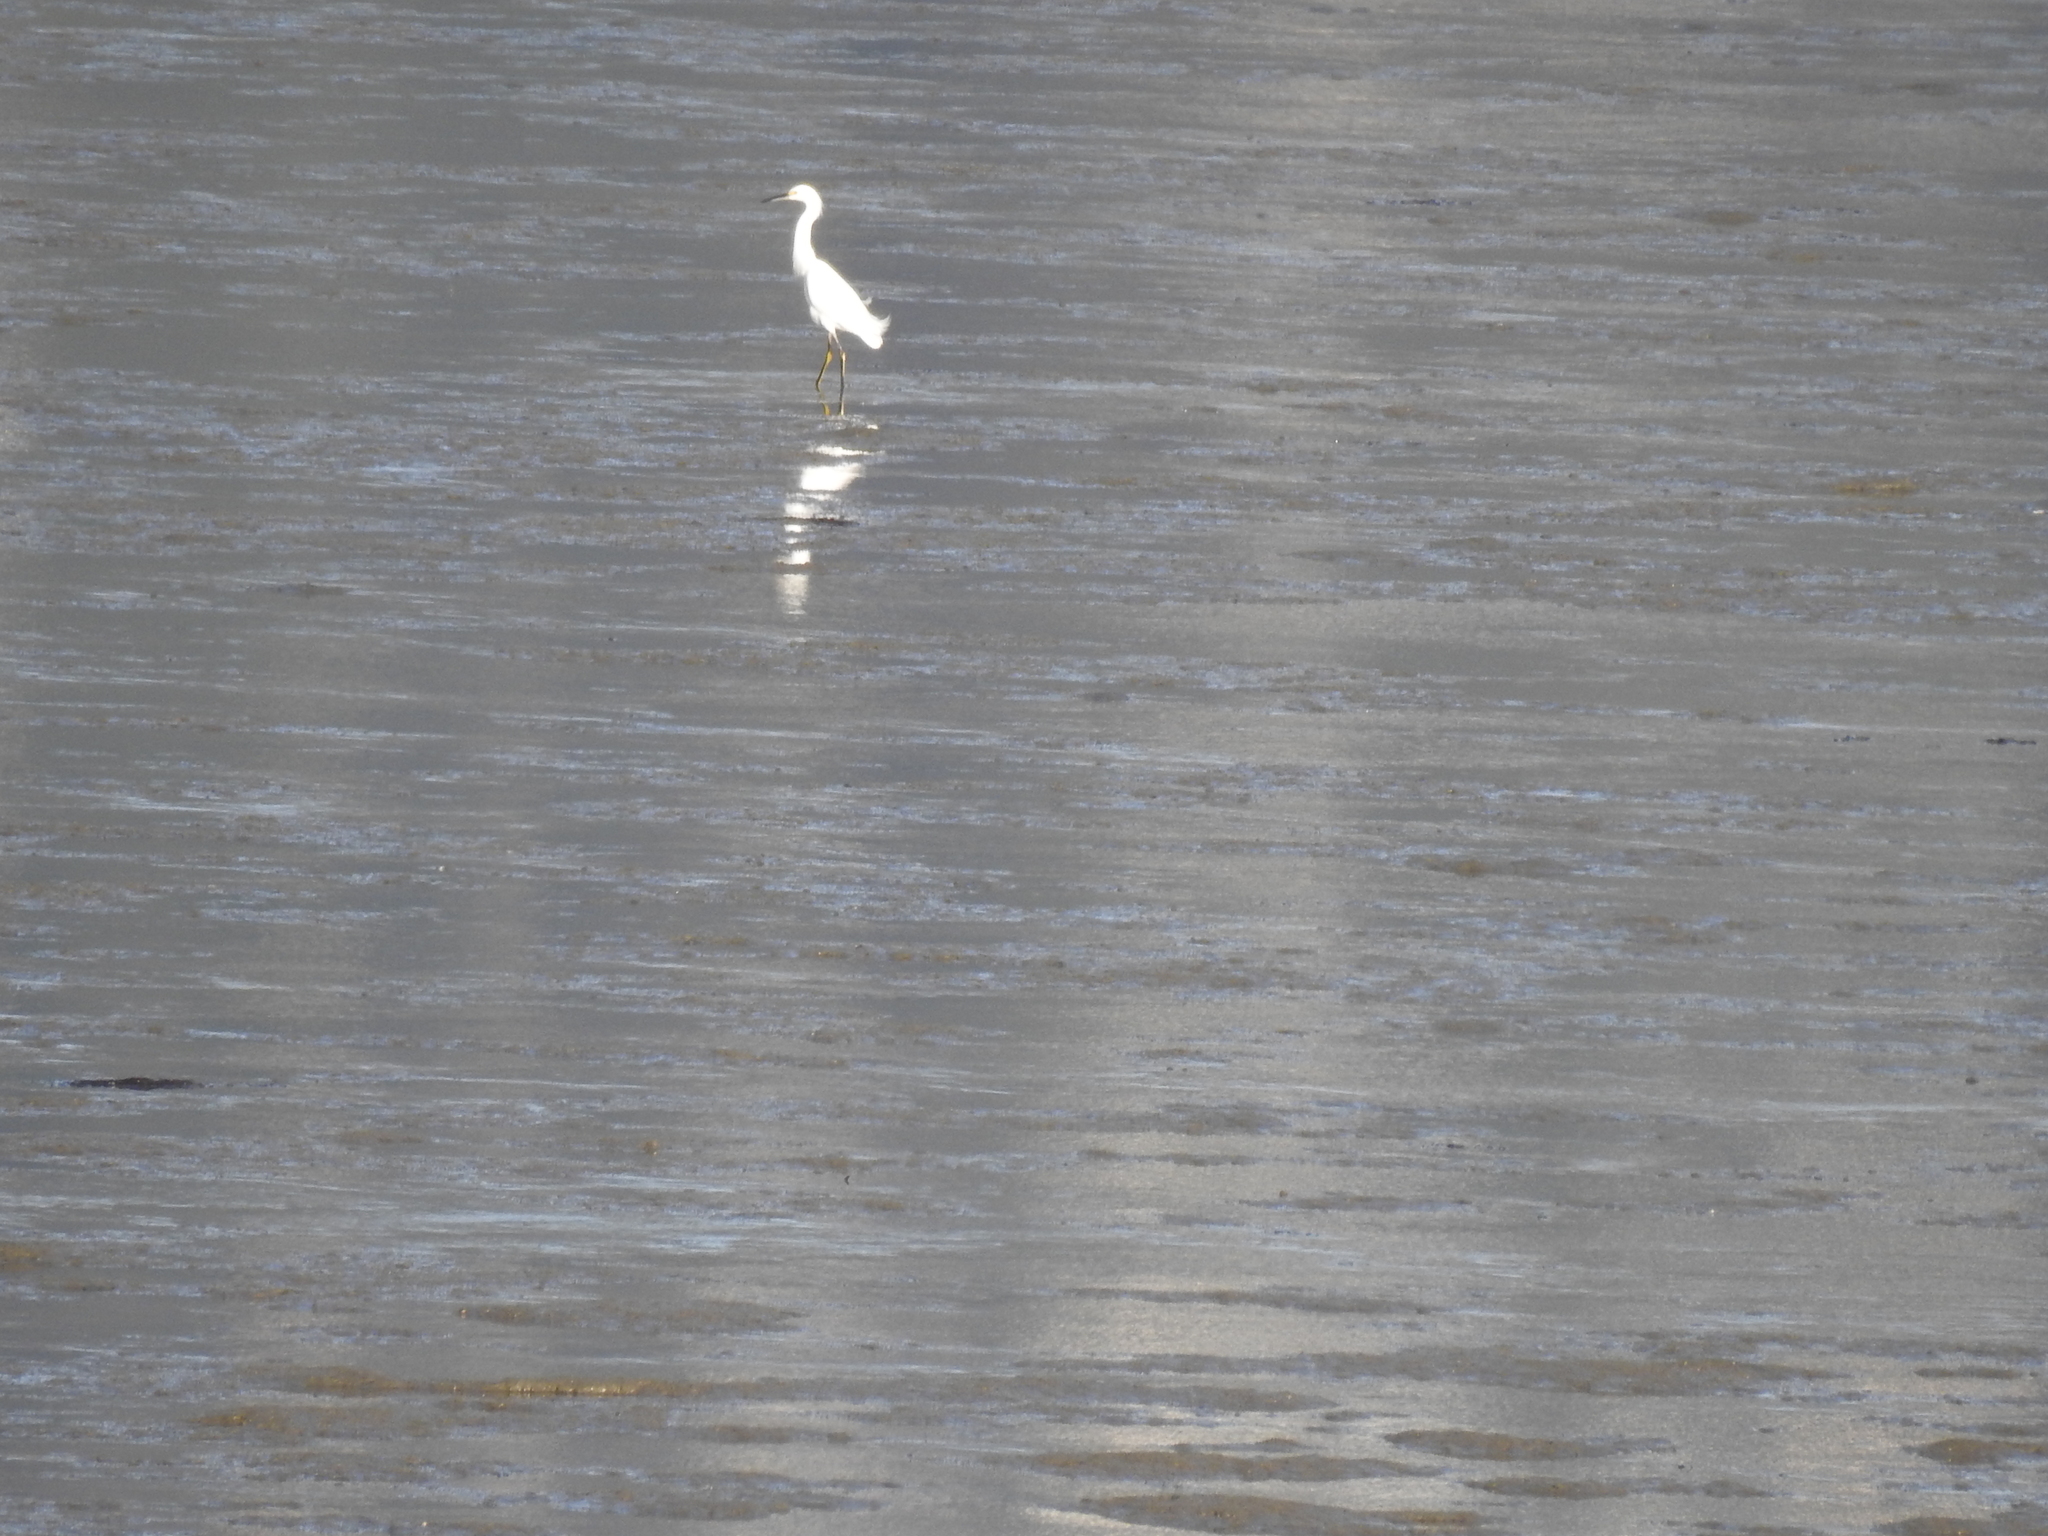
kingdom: Animalia
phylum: Chordata
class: Aves
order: Pelecaniformes
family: Ardeidae
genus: Egretta
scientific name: Egretta thula
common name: Snowy egret
